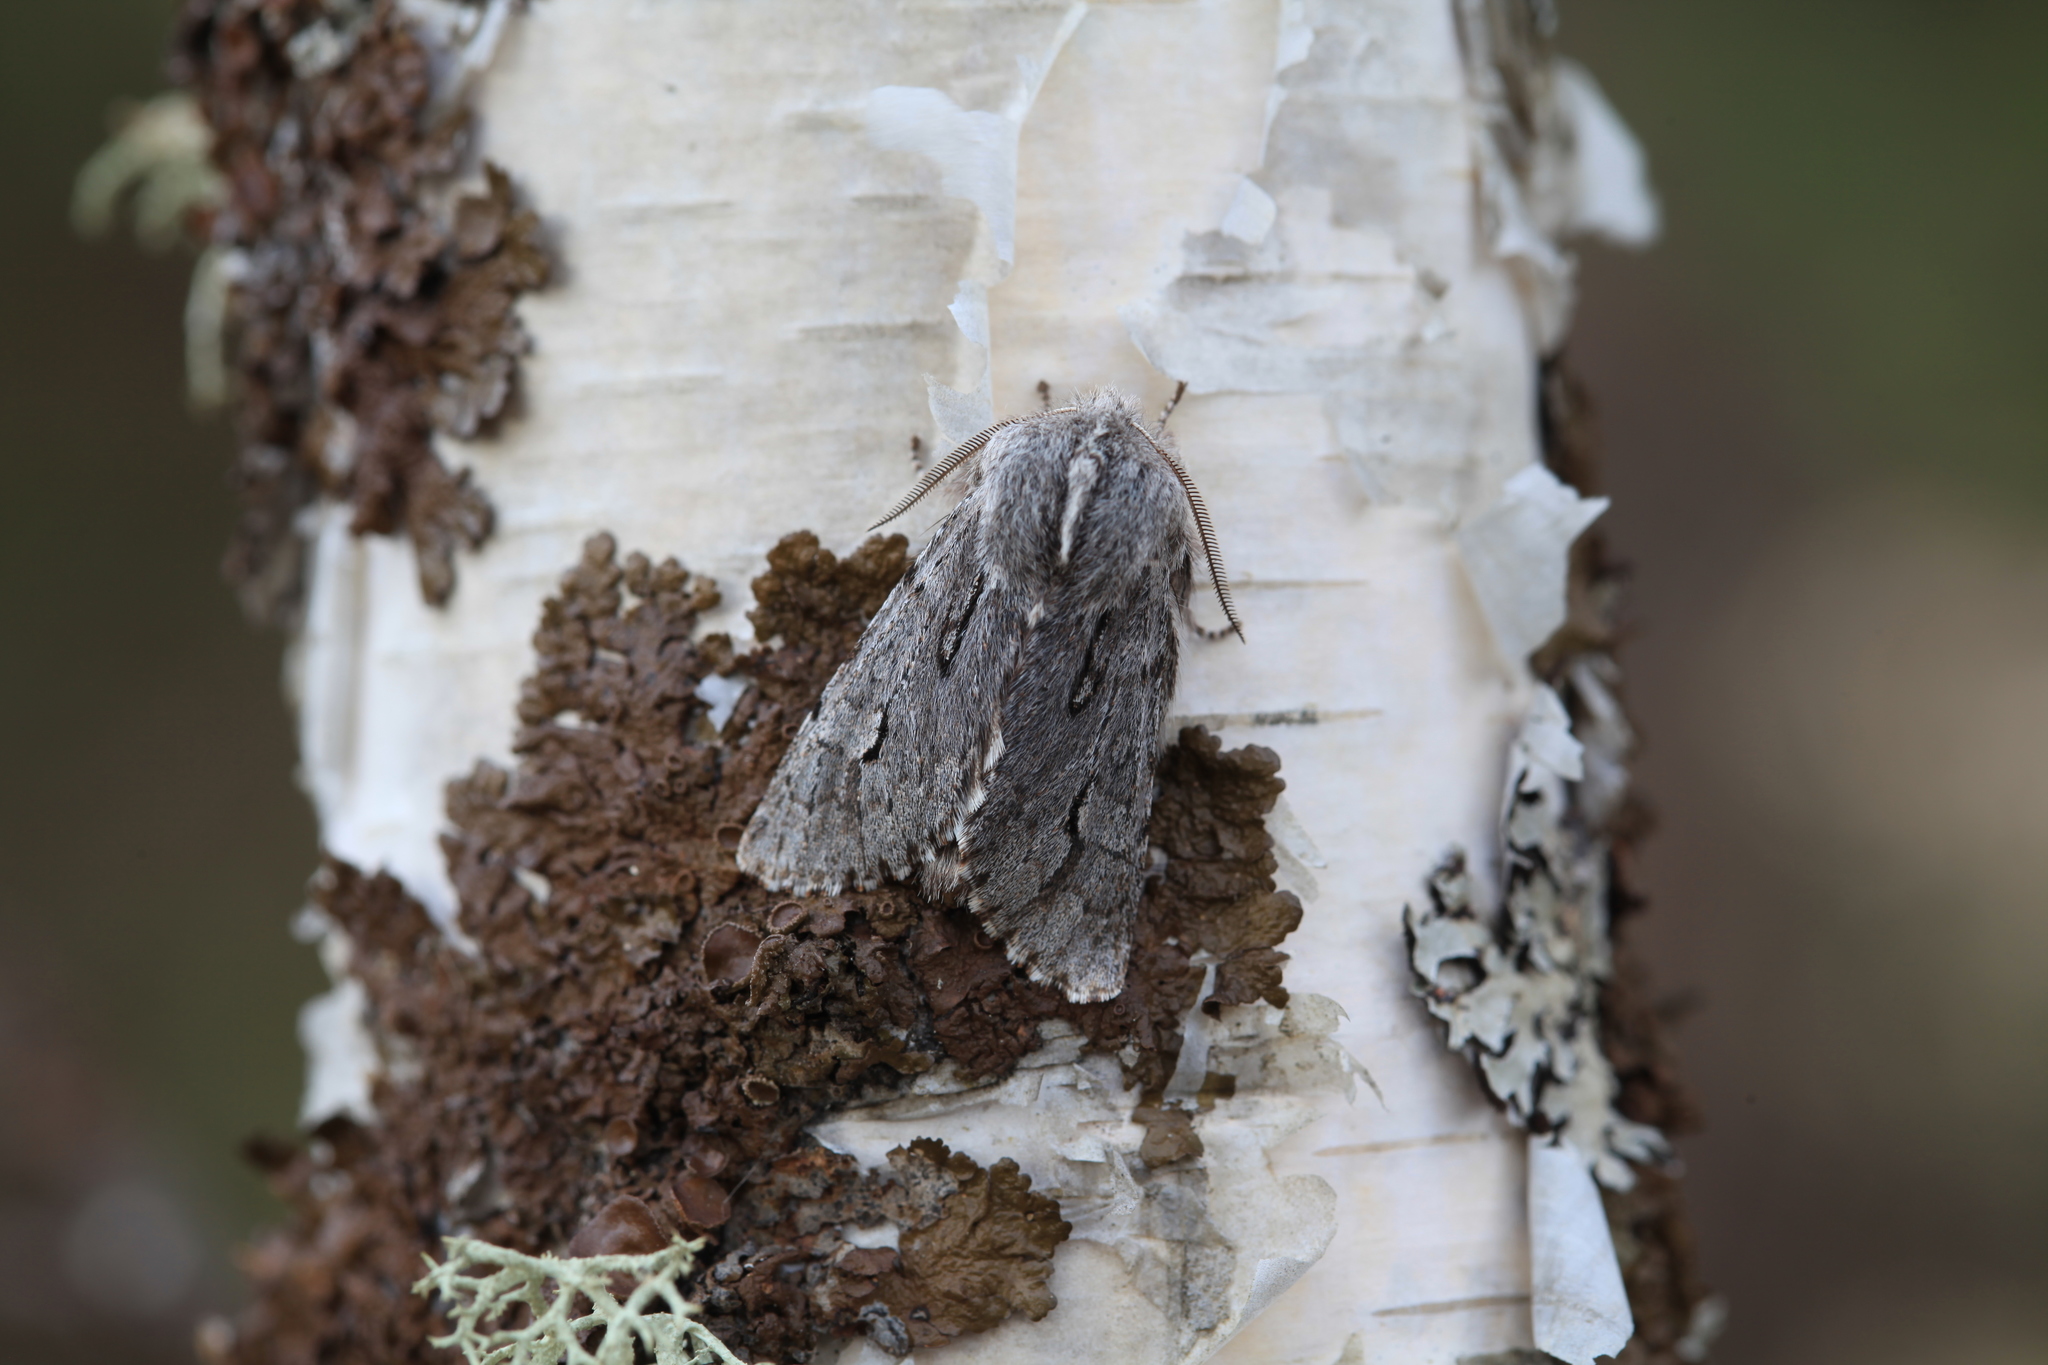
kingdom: Animalia
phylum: Arthropoda
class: Insecta
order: Lepidoptera
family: Noctuidae
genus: Brachionycha
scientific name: Brachionycha sajana
